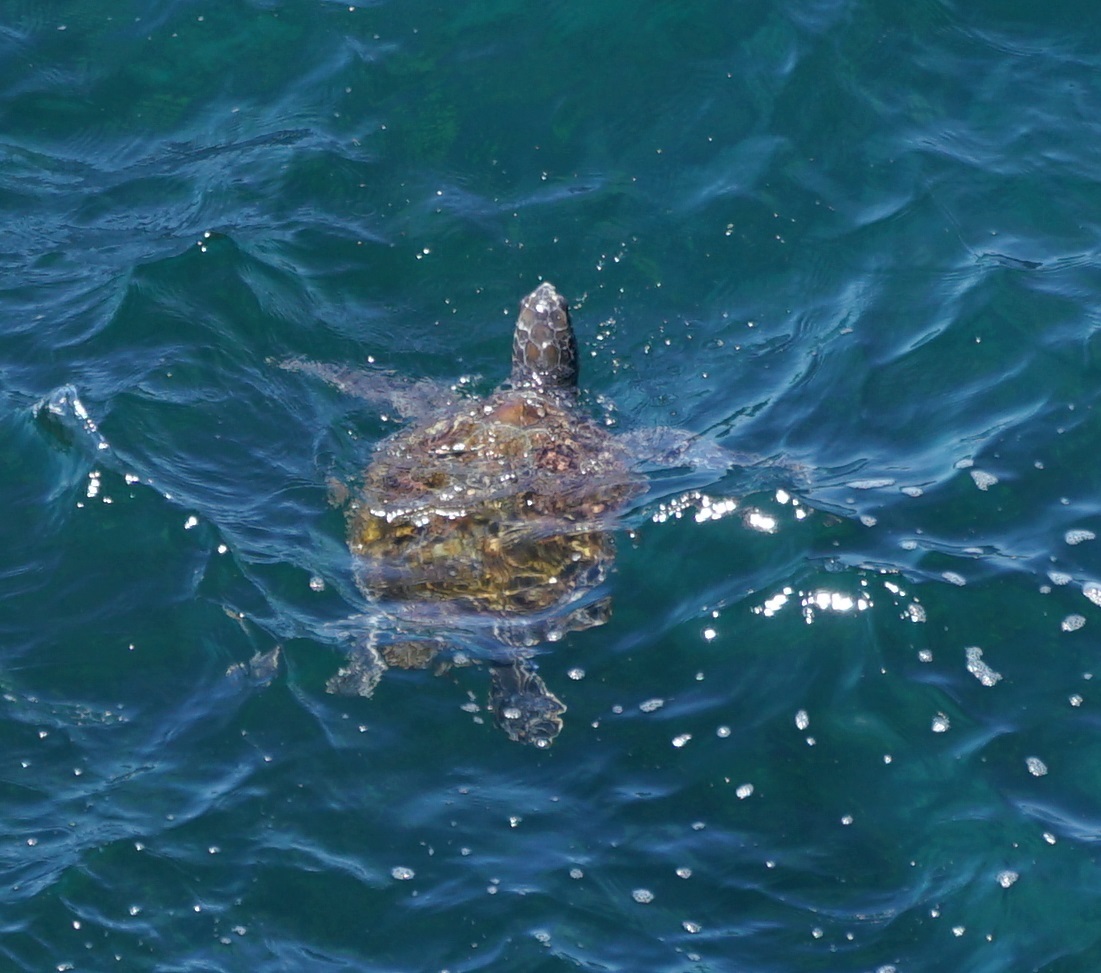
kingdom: Animalia
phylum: Chordata
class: Testudines
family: Cheloniidae
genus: Chelonia
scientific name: Chelonia mydas
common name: Green turtle
